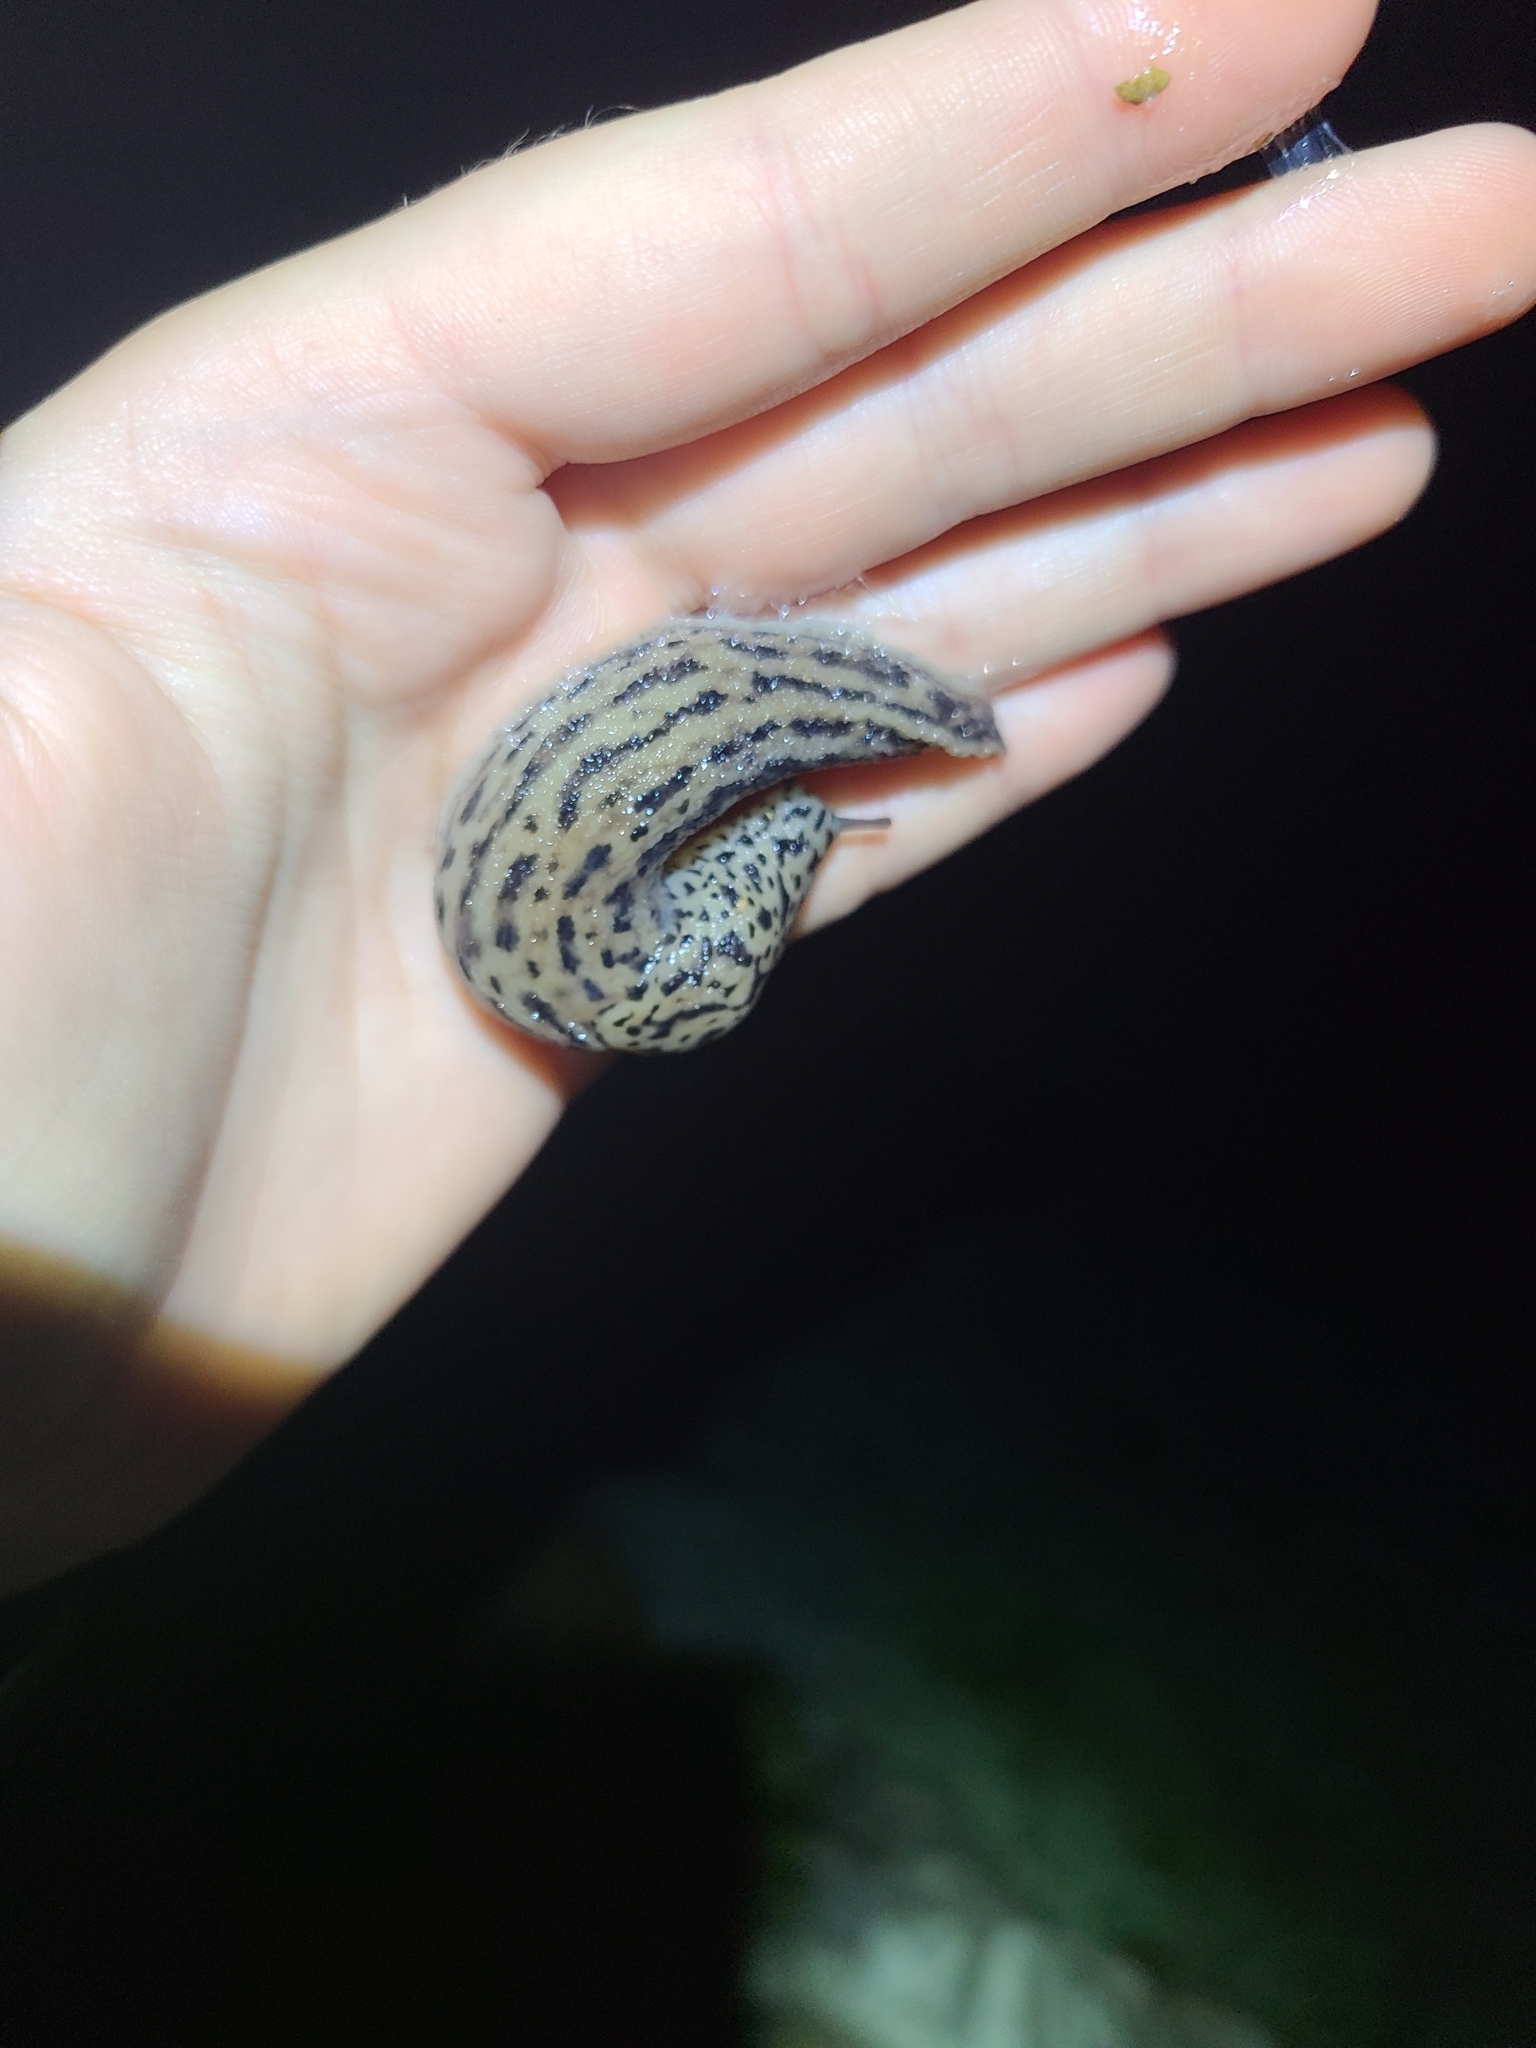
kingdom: Animalia
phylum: Mollusca
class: Gastropoda
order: Stylommatophora
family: Limacidae
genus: Limax
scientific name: Limax maximus
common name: Great grey slug
